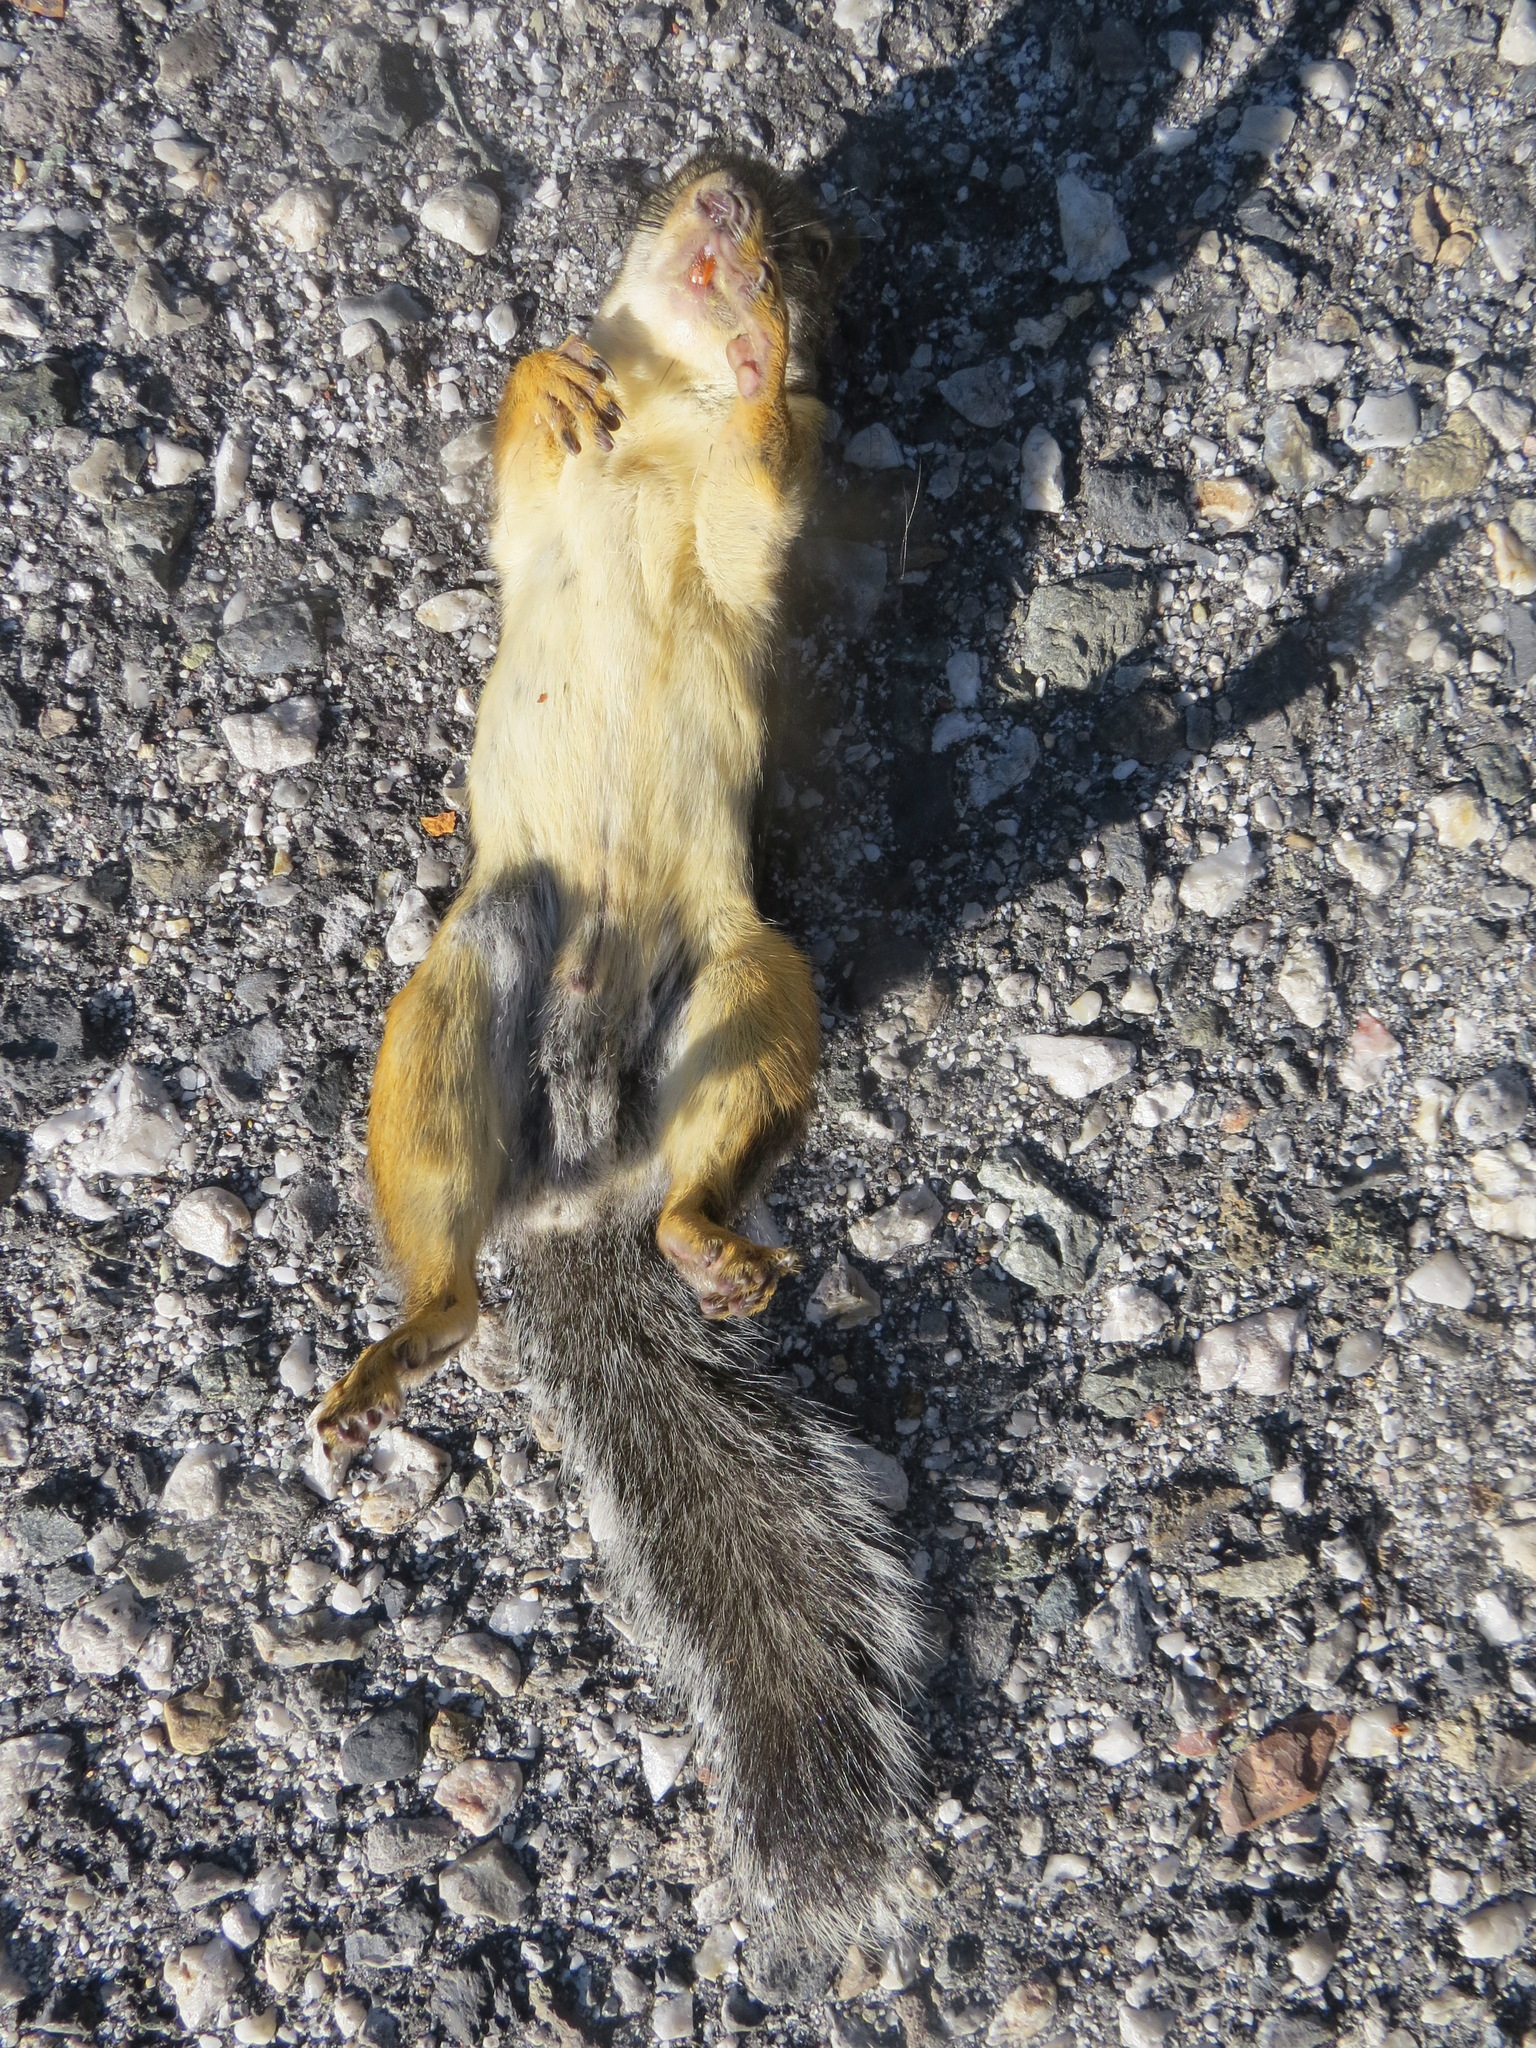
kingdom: Animalia
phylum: Chordata
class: Mammalia
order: Rodentia
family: Sciuridae
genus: Tamiasciurus
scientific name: Tamiasciurus douglasii
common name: Douglas's squirrel
